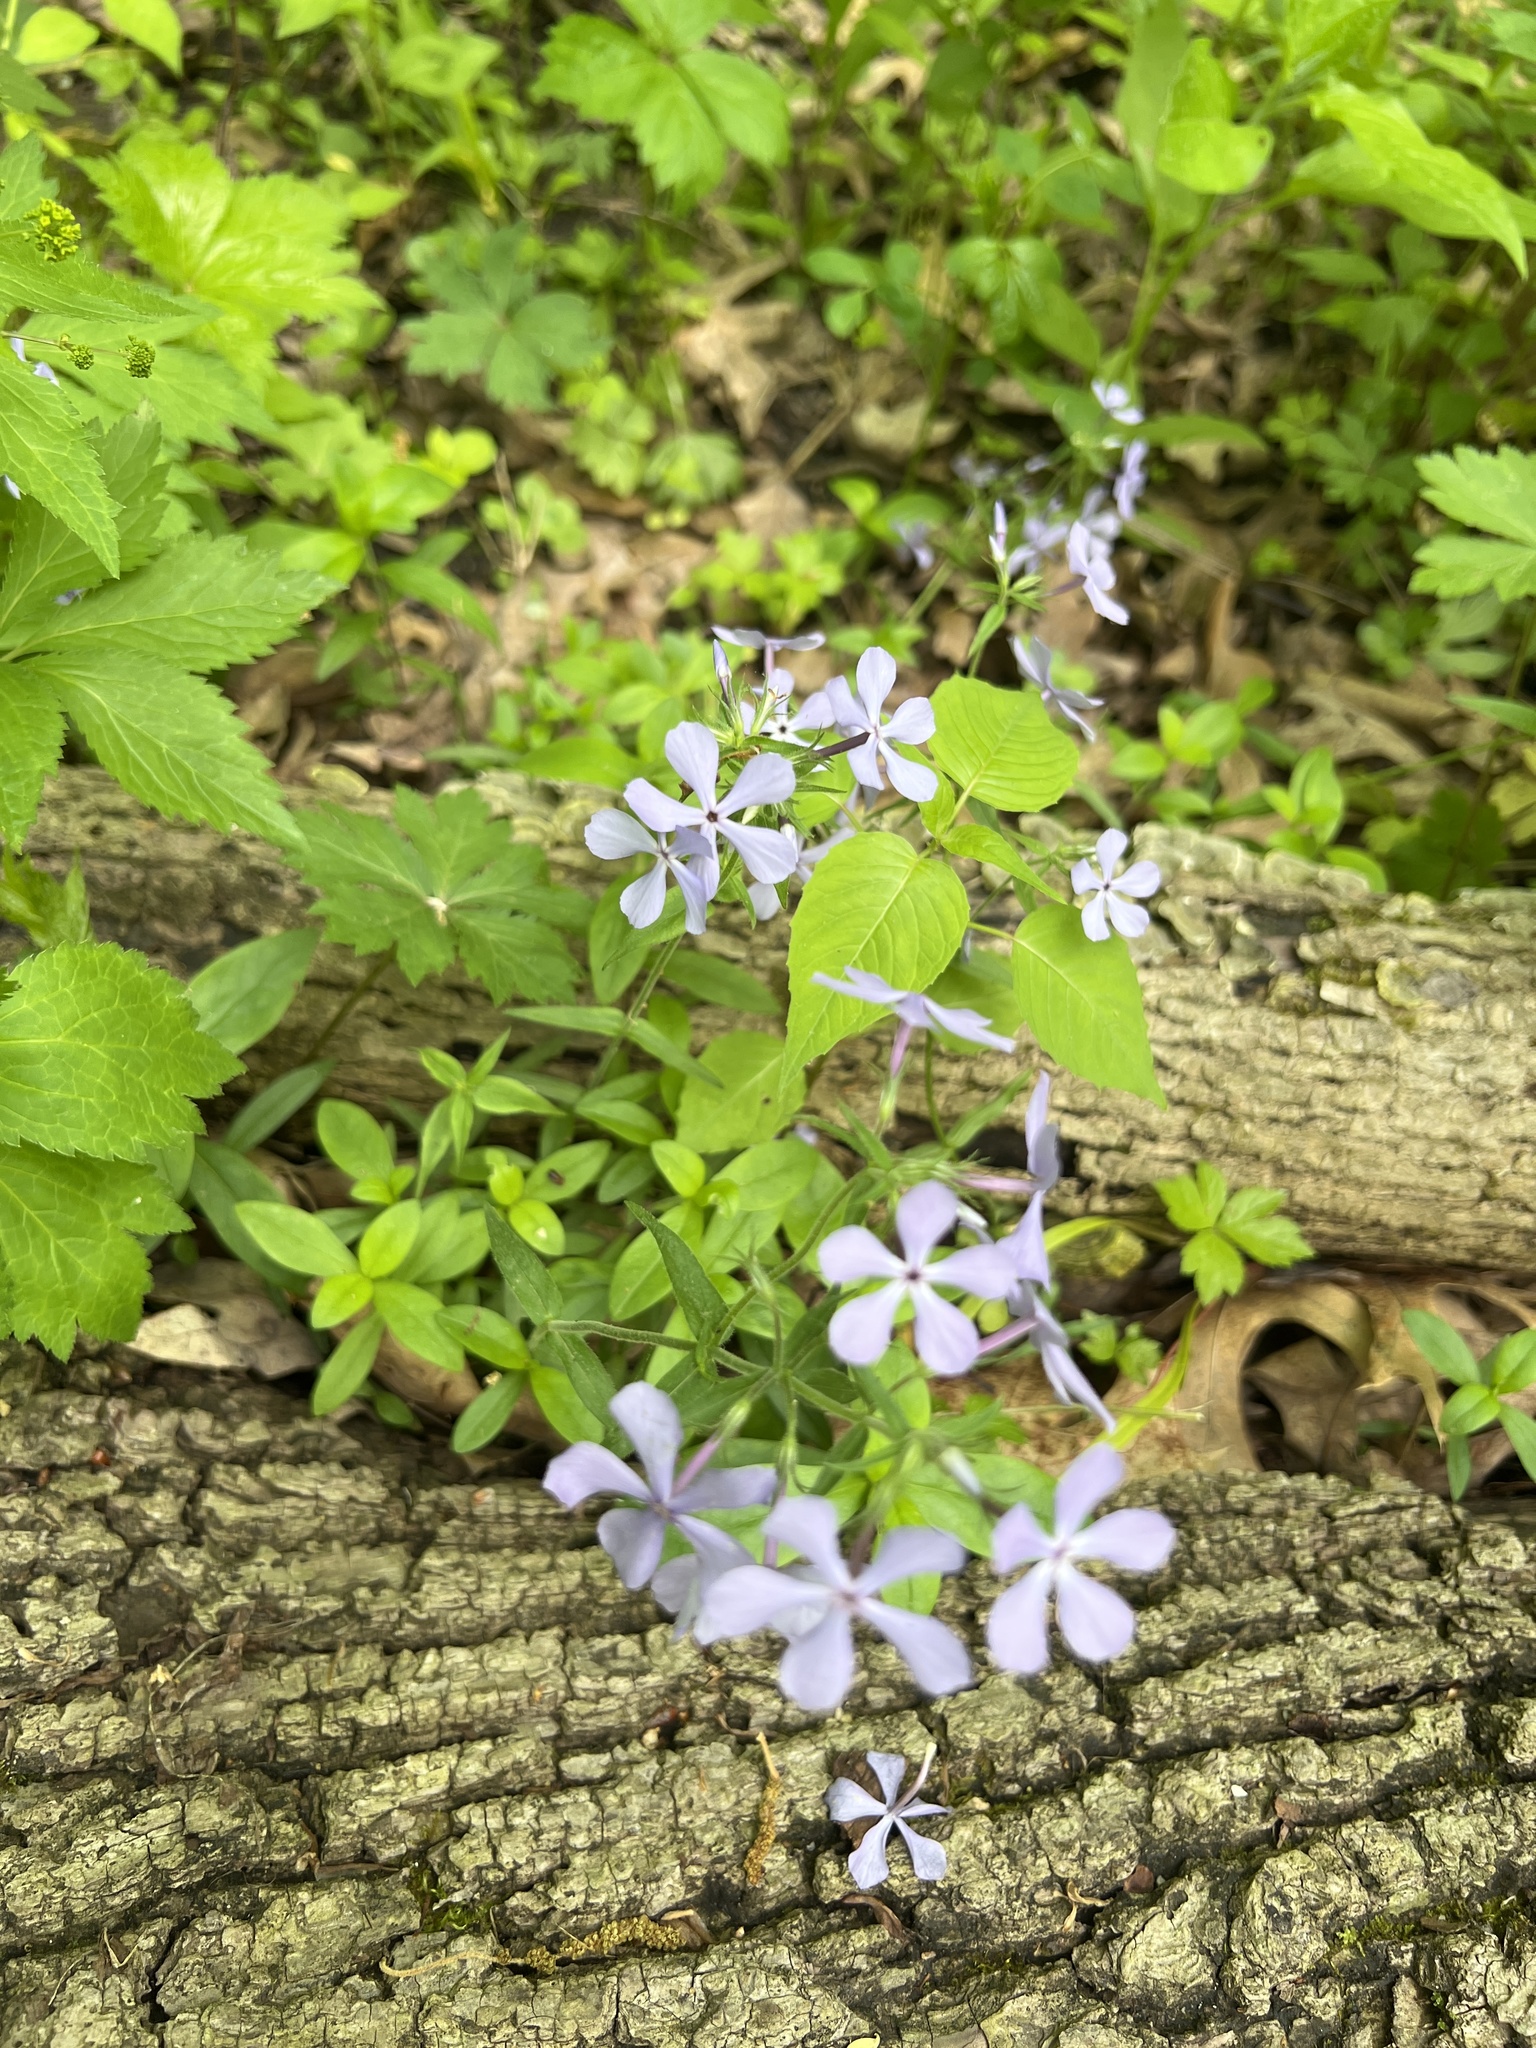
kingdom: Plantae
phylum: Tracheophyta
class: Magnoliopsida
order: Ericales
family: Polemoniaceae
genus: Phlox
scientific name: Phlox divaricata
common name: Blue phlox
